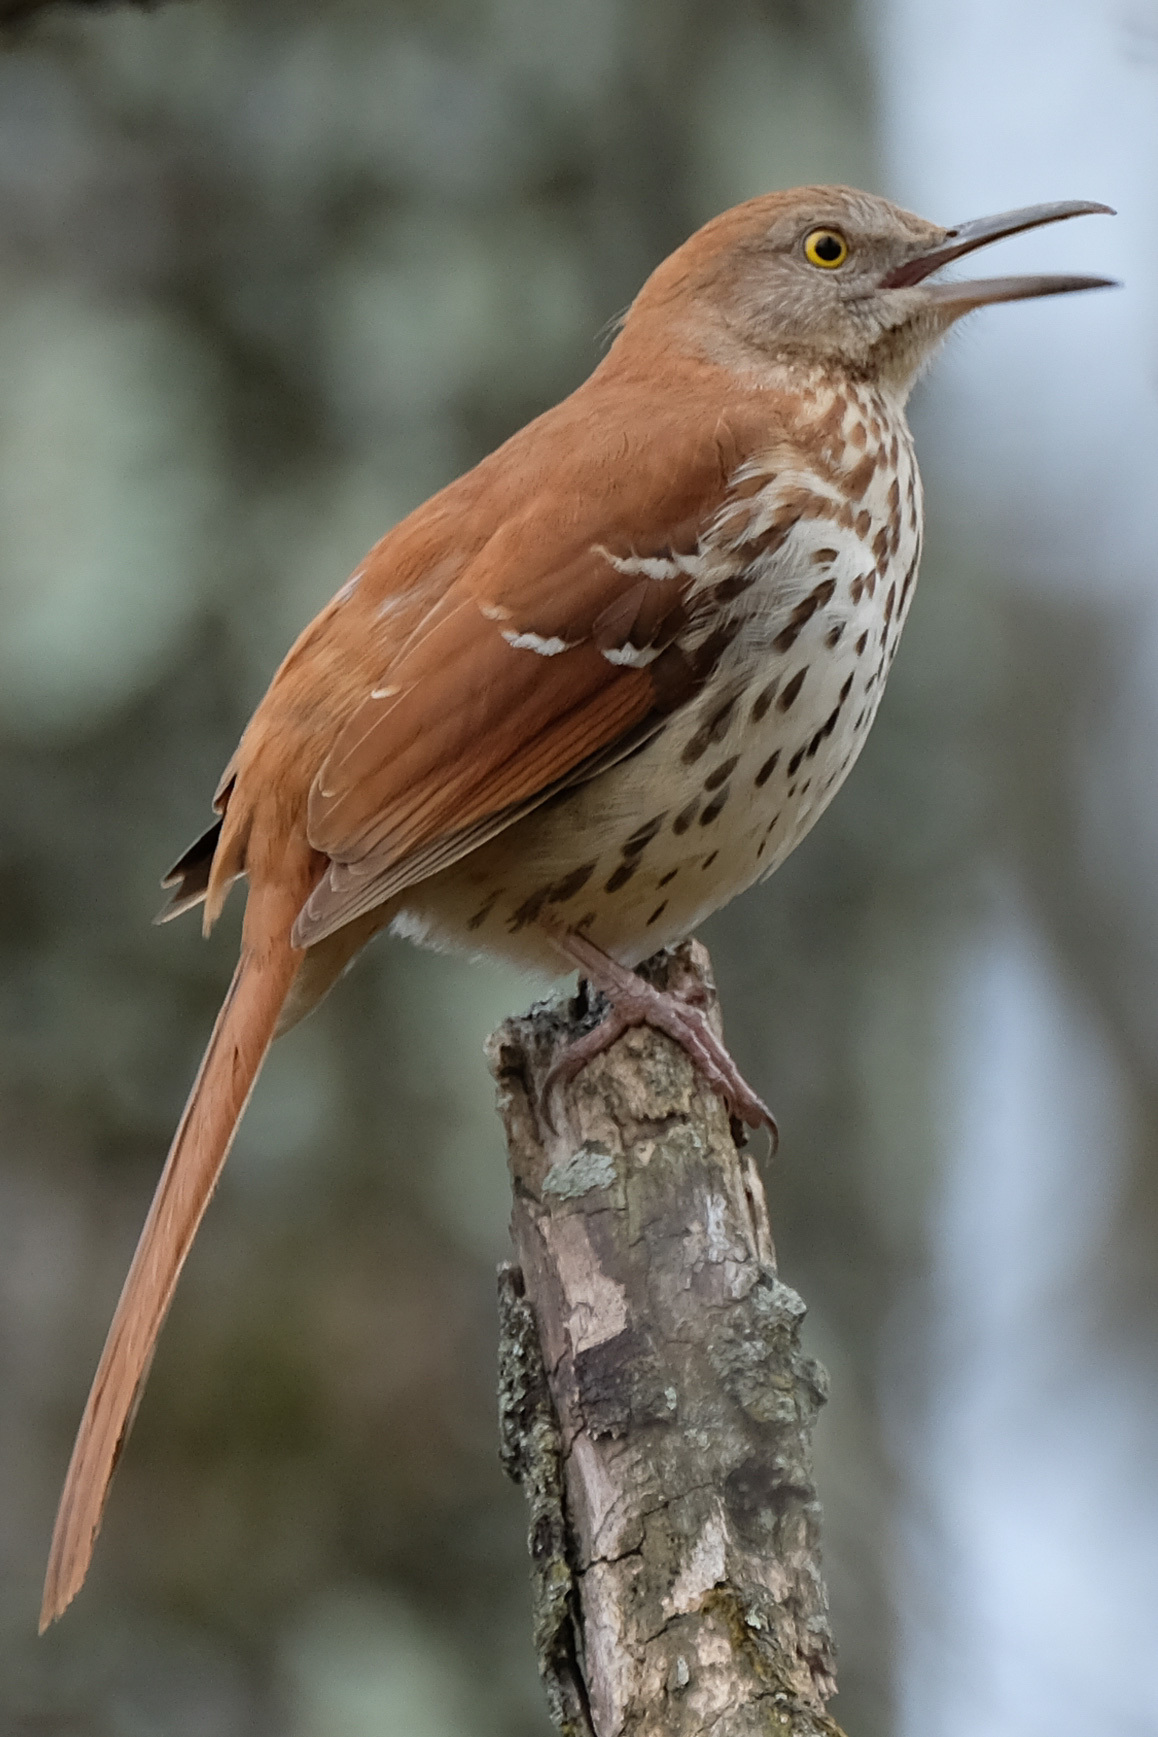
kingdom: Animalia
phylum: Chordata
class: Aves
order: Passeriformes
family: Mimidae
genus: Toxostoma
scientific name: Toxostoma rufum
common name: Brown thrasher
